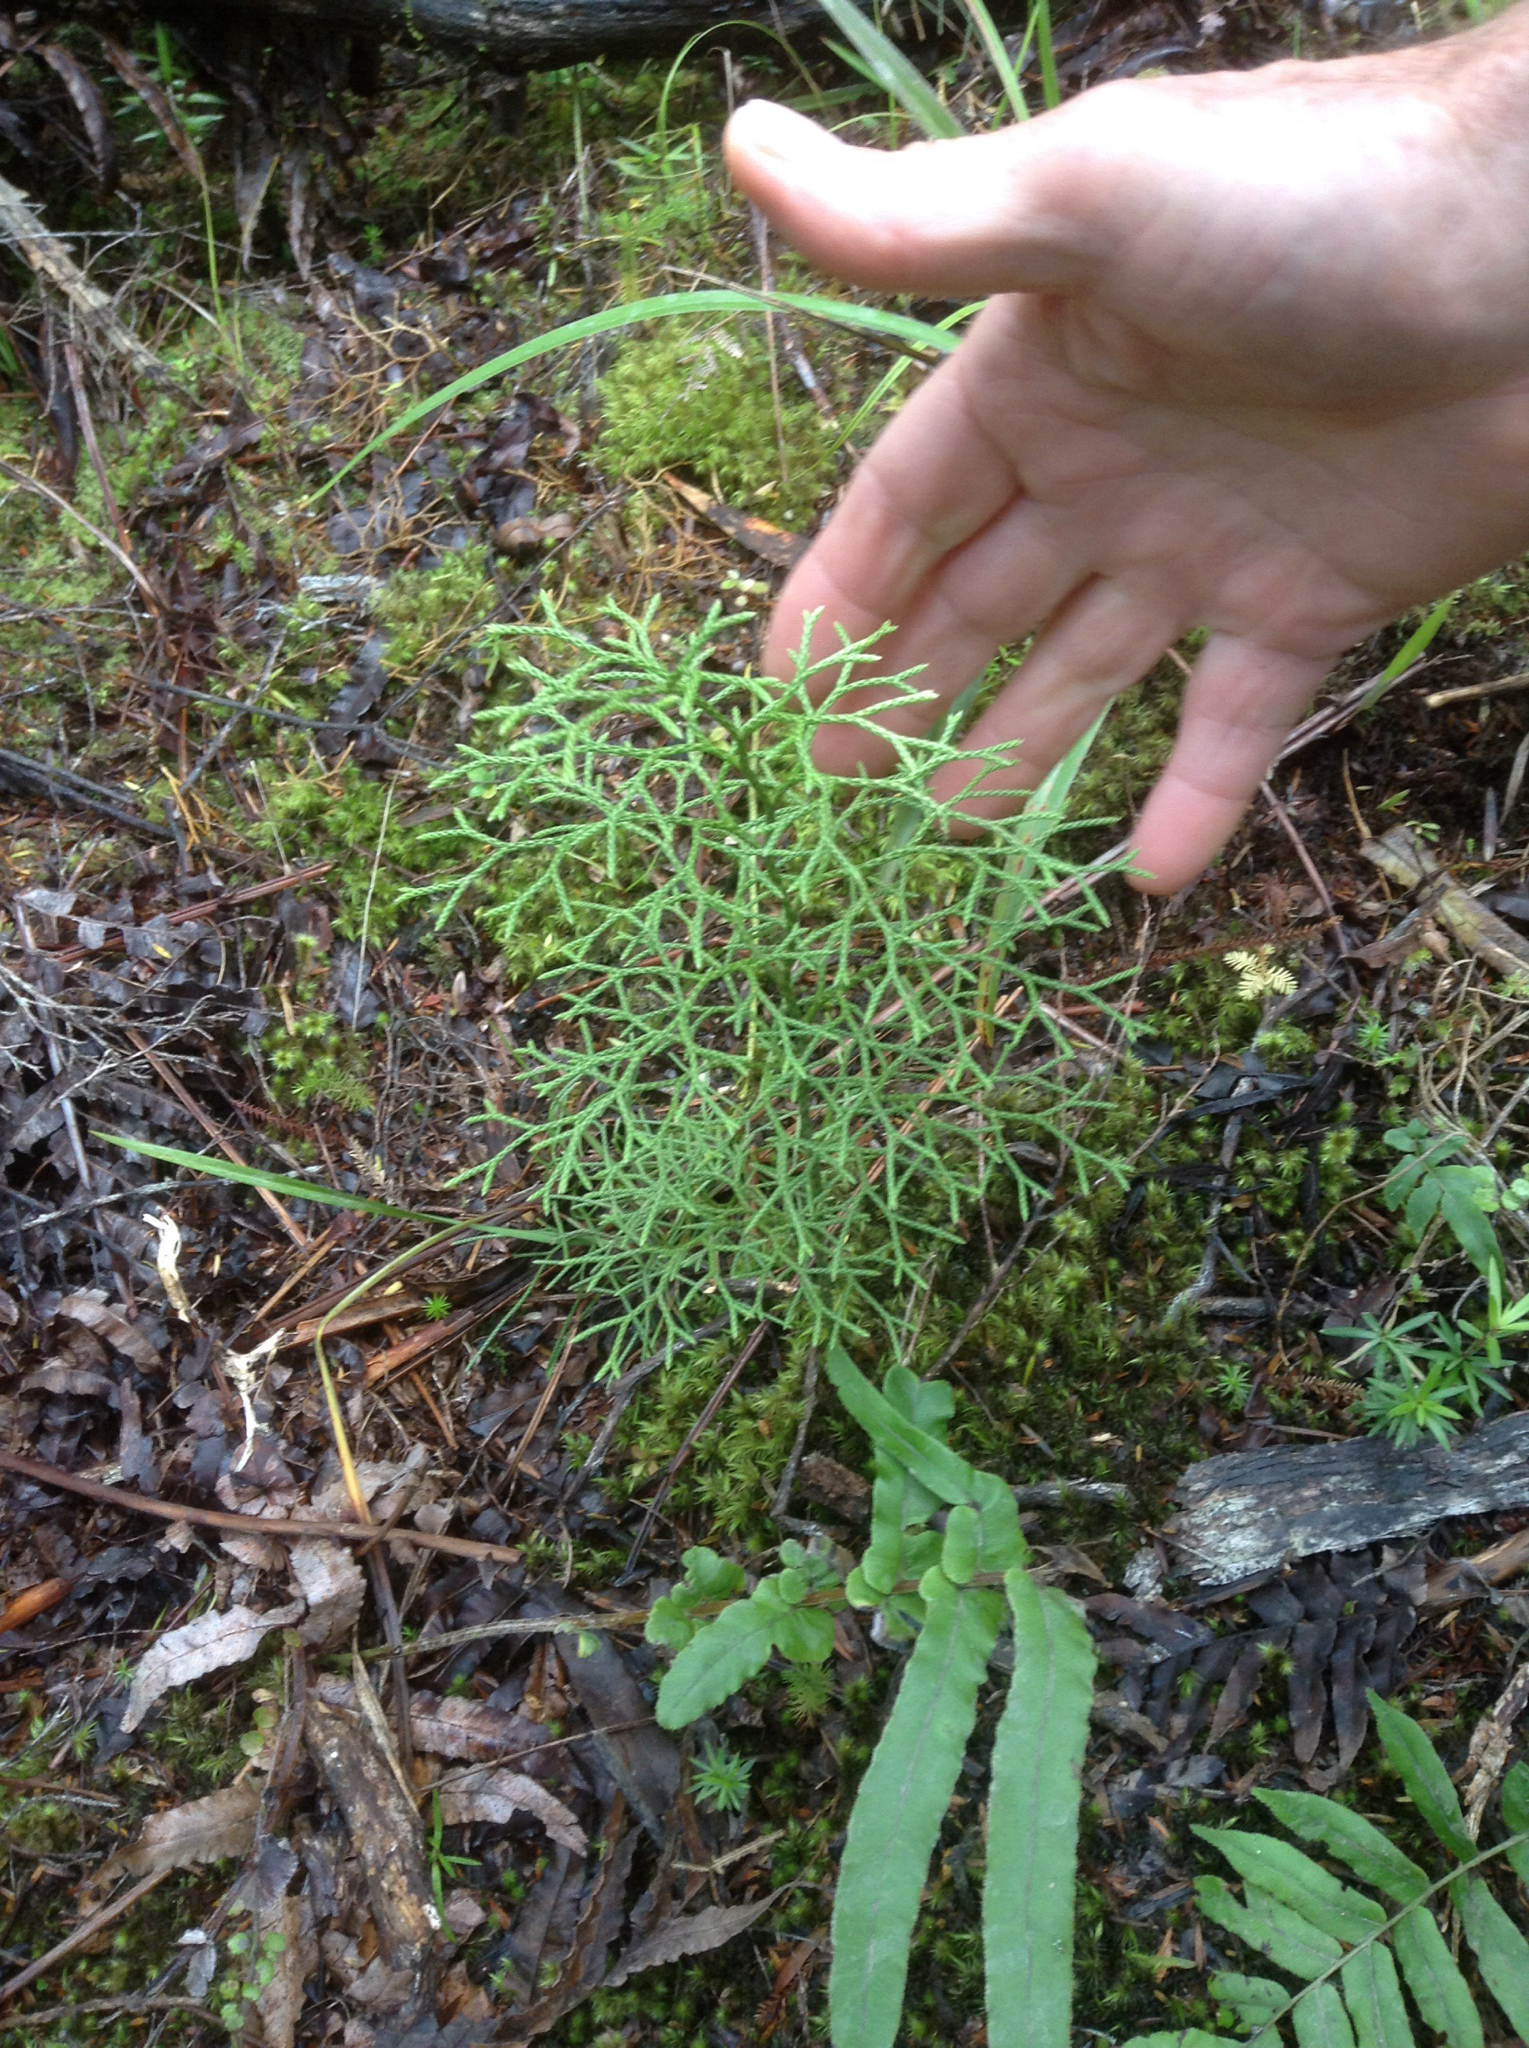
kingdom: Plantae
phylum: Tracheophyta
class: Lycopodiopsida
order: Lycopodiales
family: Lycopodiaceae
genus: Pseudolycopodium
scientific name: Pseudolycopodium densum
